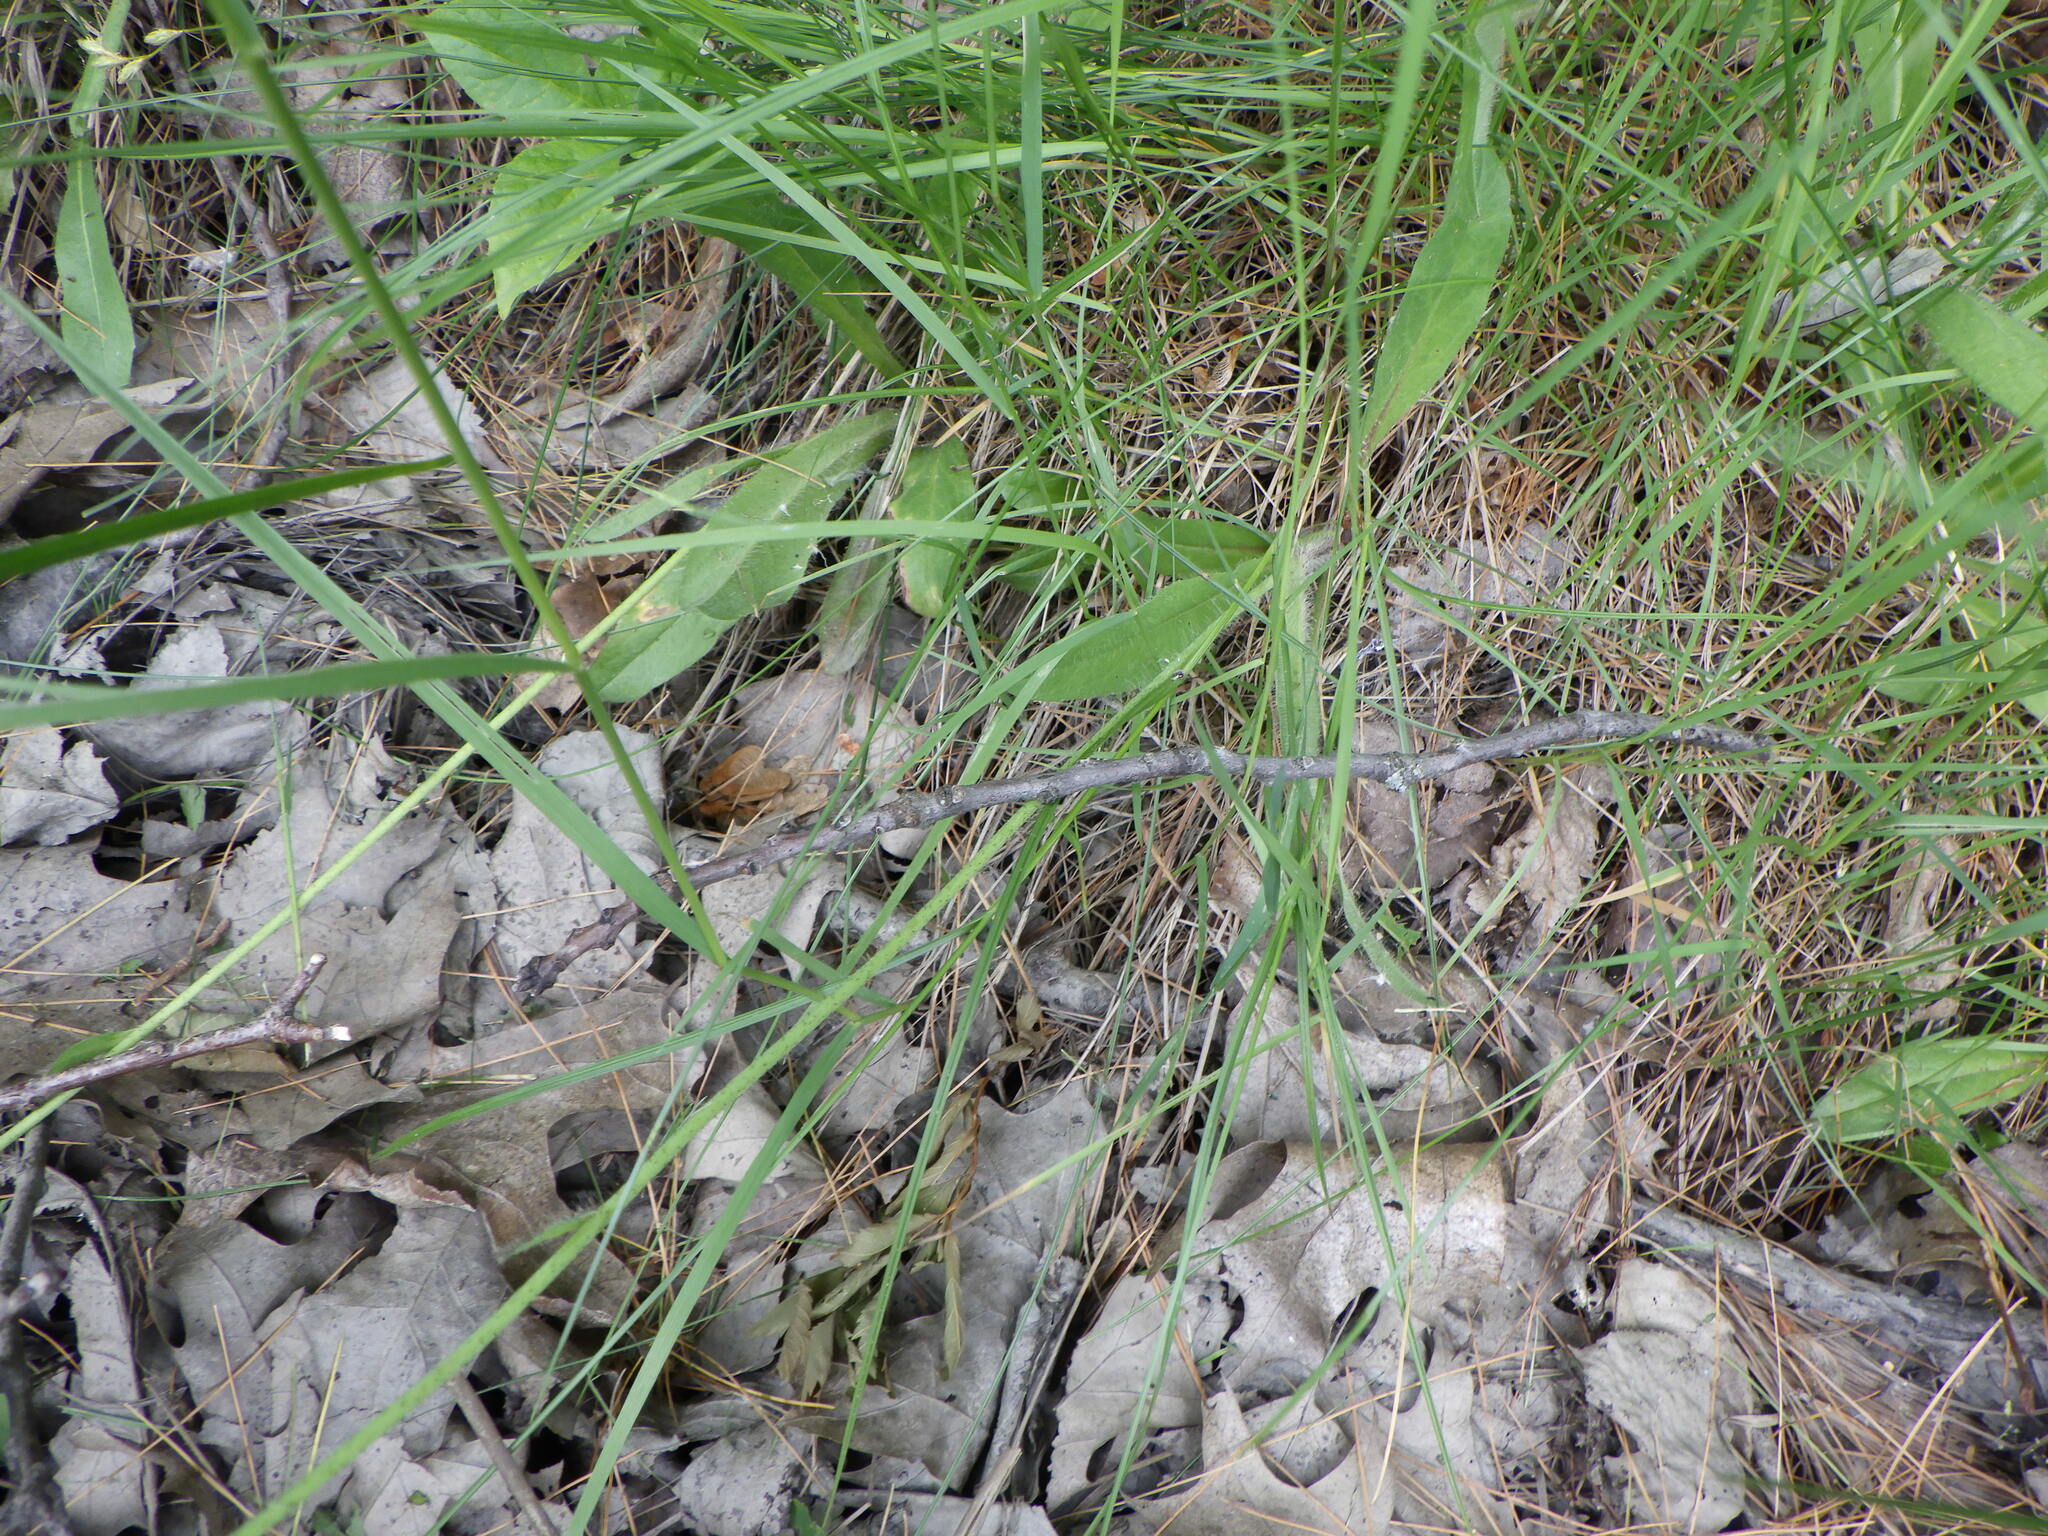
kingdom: Plantae
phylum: Tracheophyta
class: Magnoliopsida
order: Asterales
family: Asteraceae
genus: Pilosella
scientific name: Pilosella aurantiaca
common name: Fox-and-cubs
